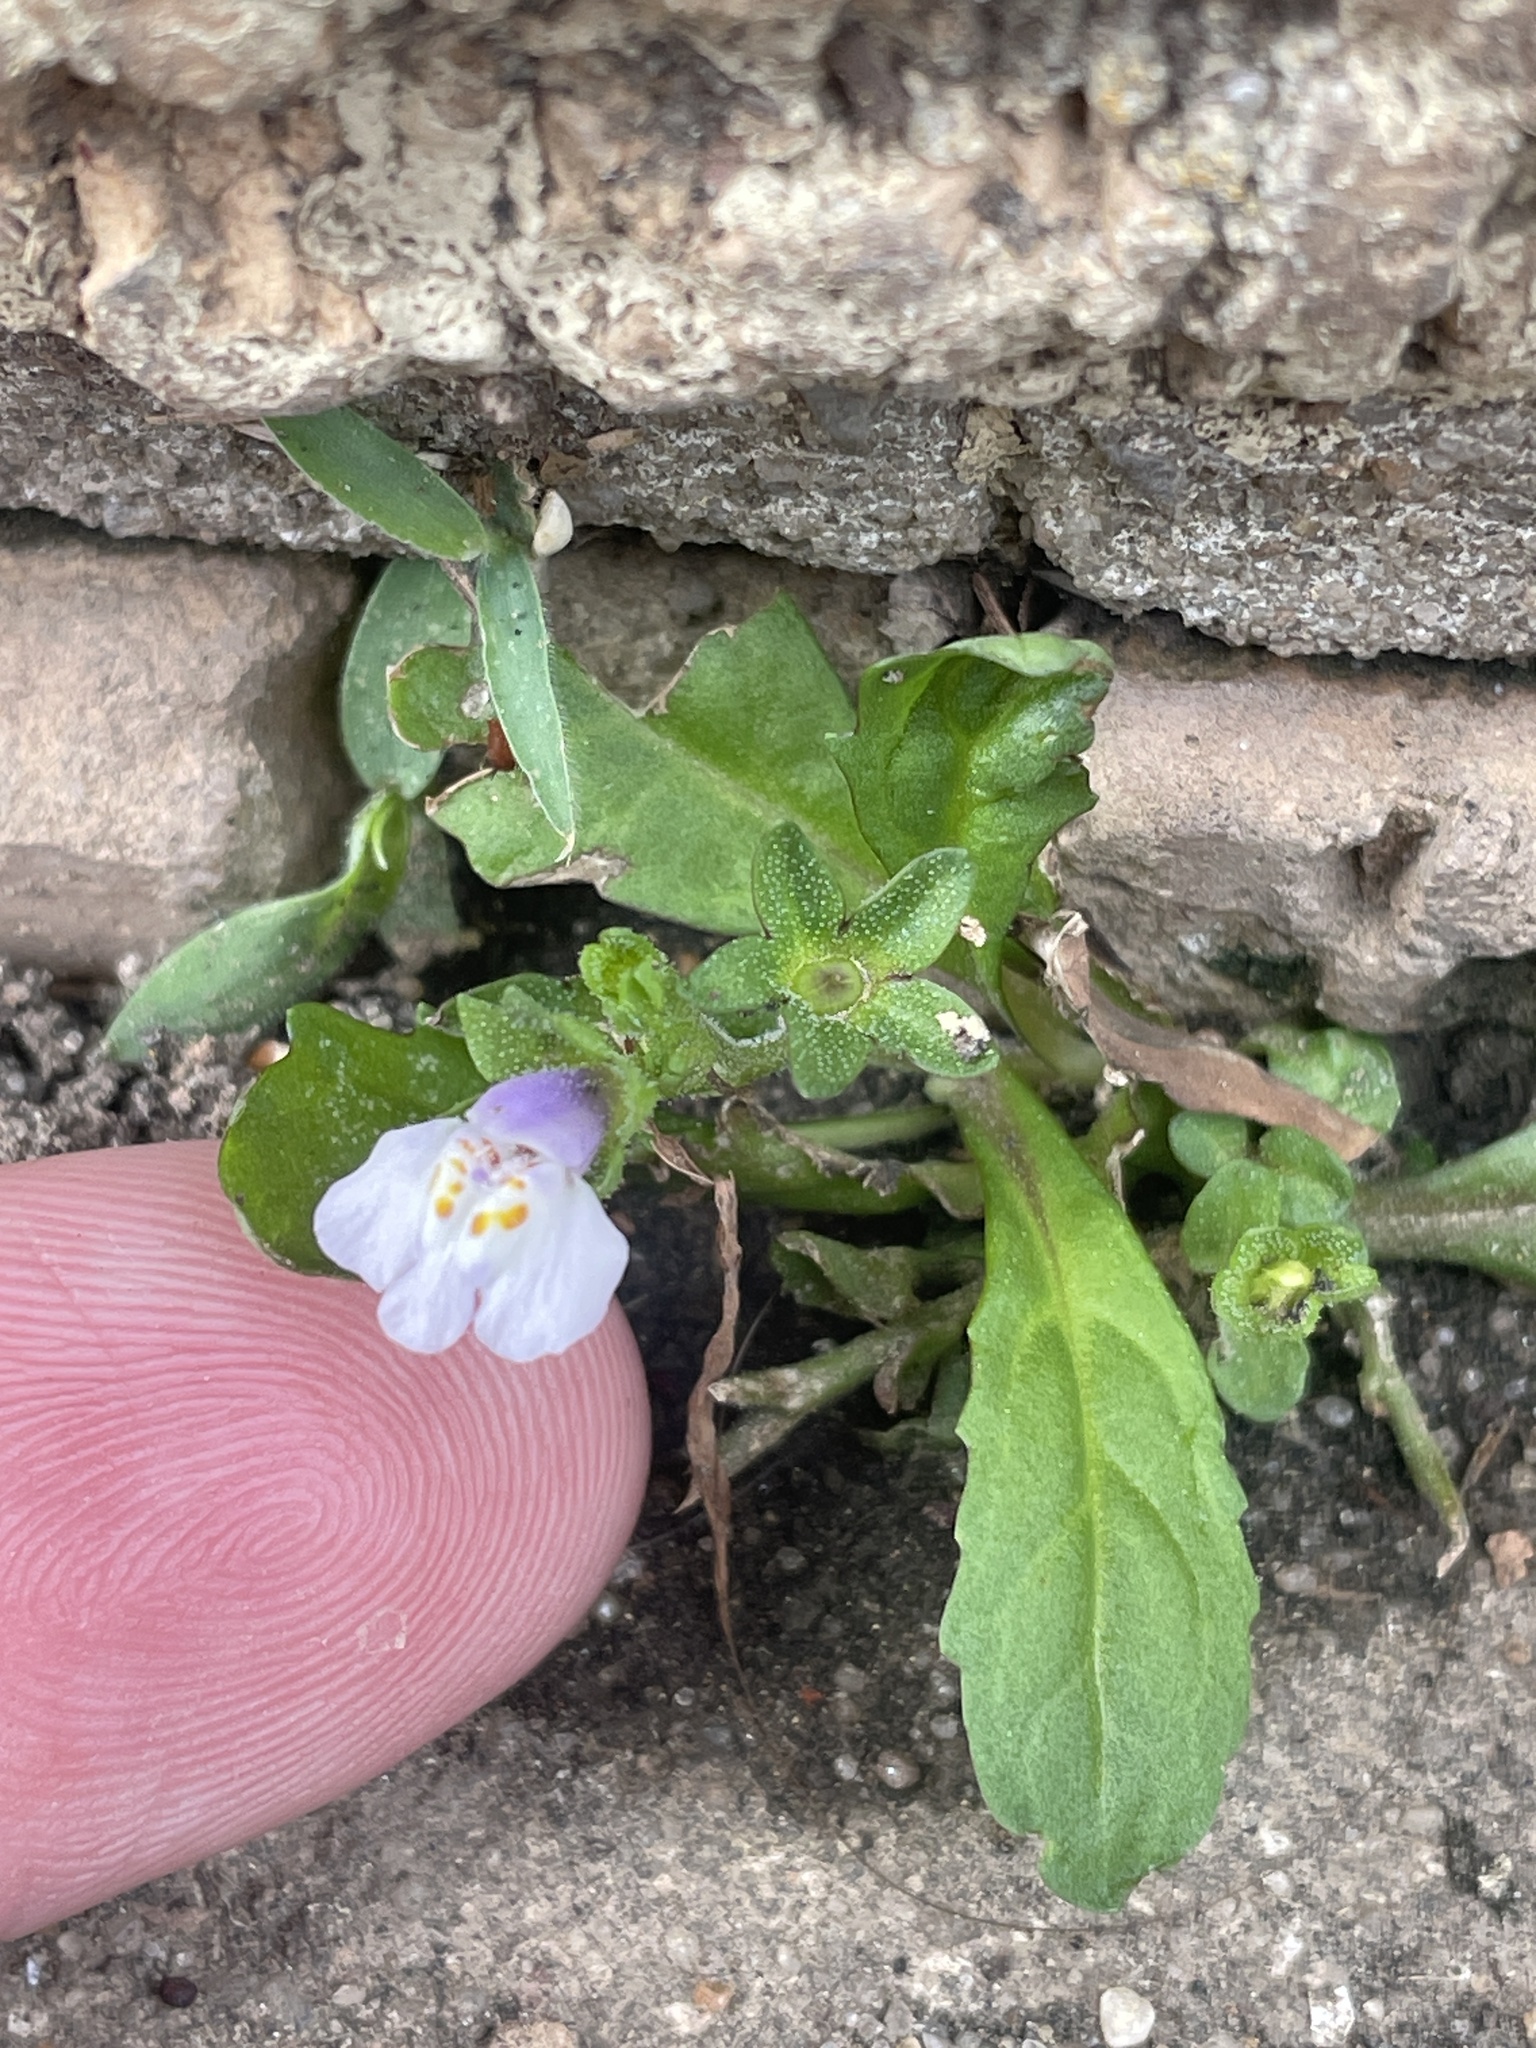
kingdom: Plantae
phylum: Tracheophyta
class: Magnoliopsida
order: Lamiales
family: Mazaceae
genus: Mazus
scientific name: Mazus pumilus
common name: Japanese mazus
